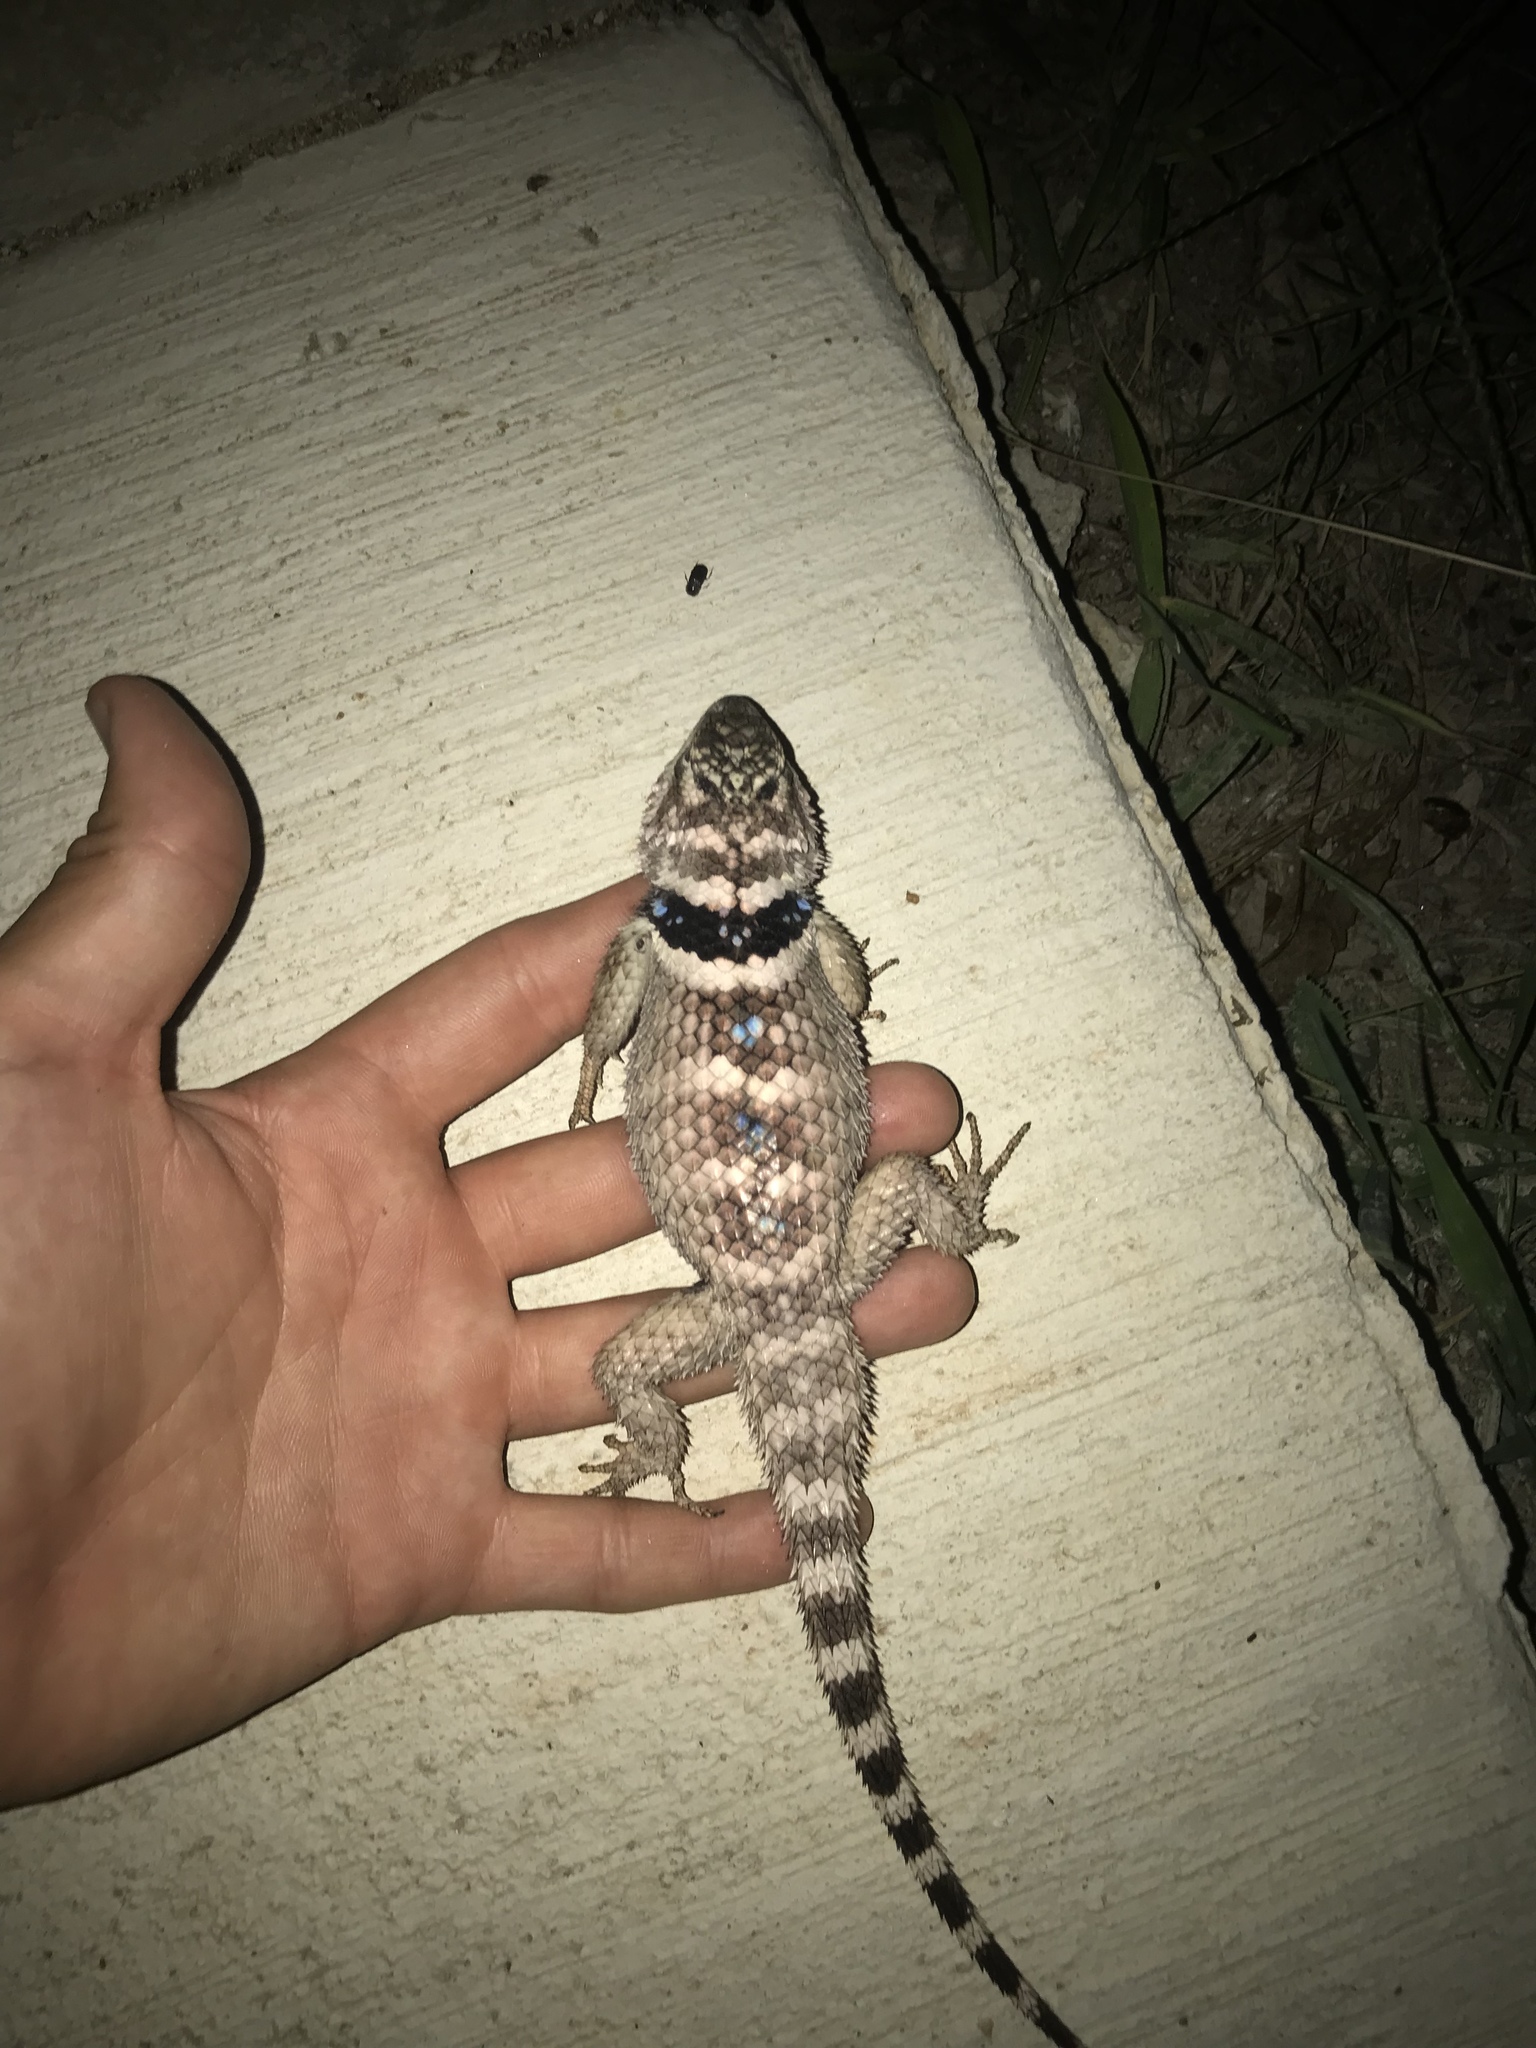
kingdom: Animalia
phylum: Chordata
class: Squamata
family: Phrynosomatidae
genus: Sceloporus
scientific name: Sceloporus poinsettii
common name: Crevice spiny lizard
